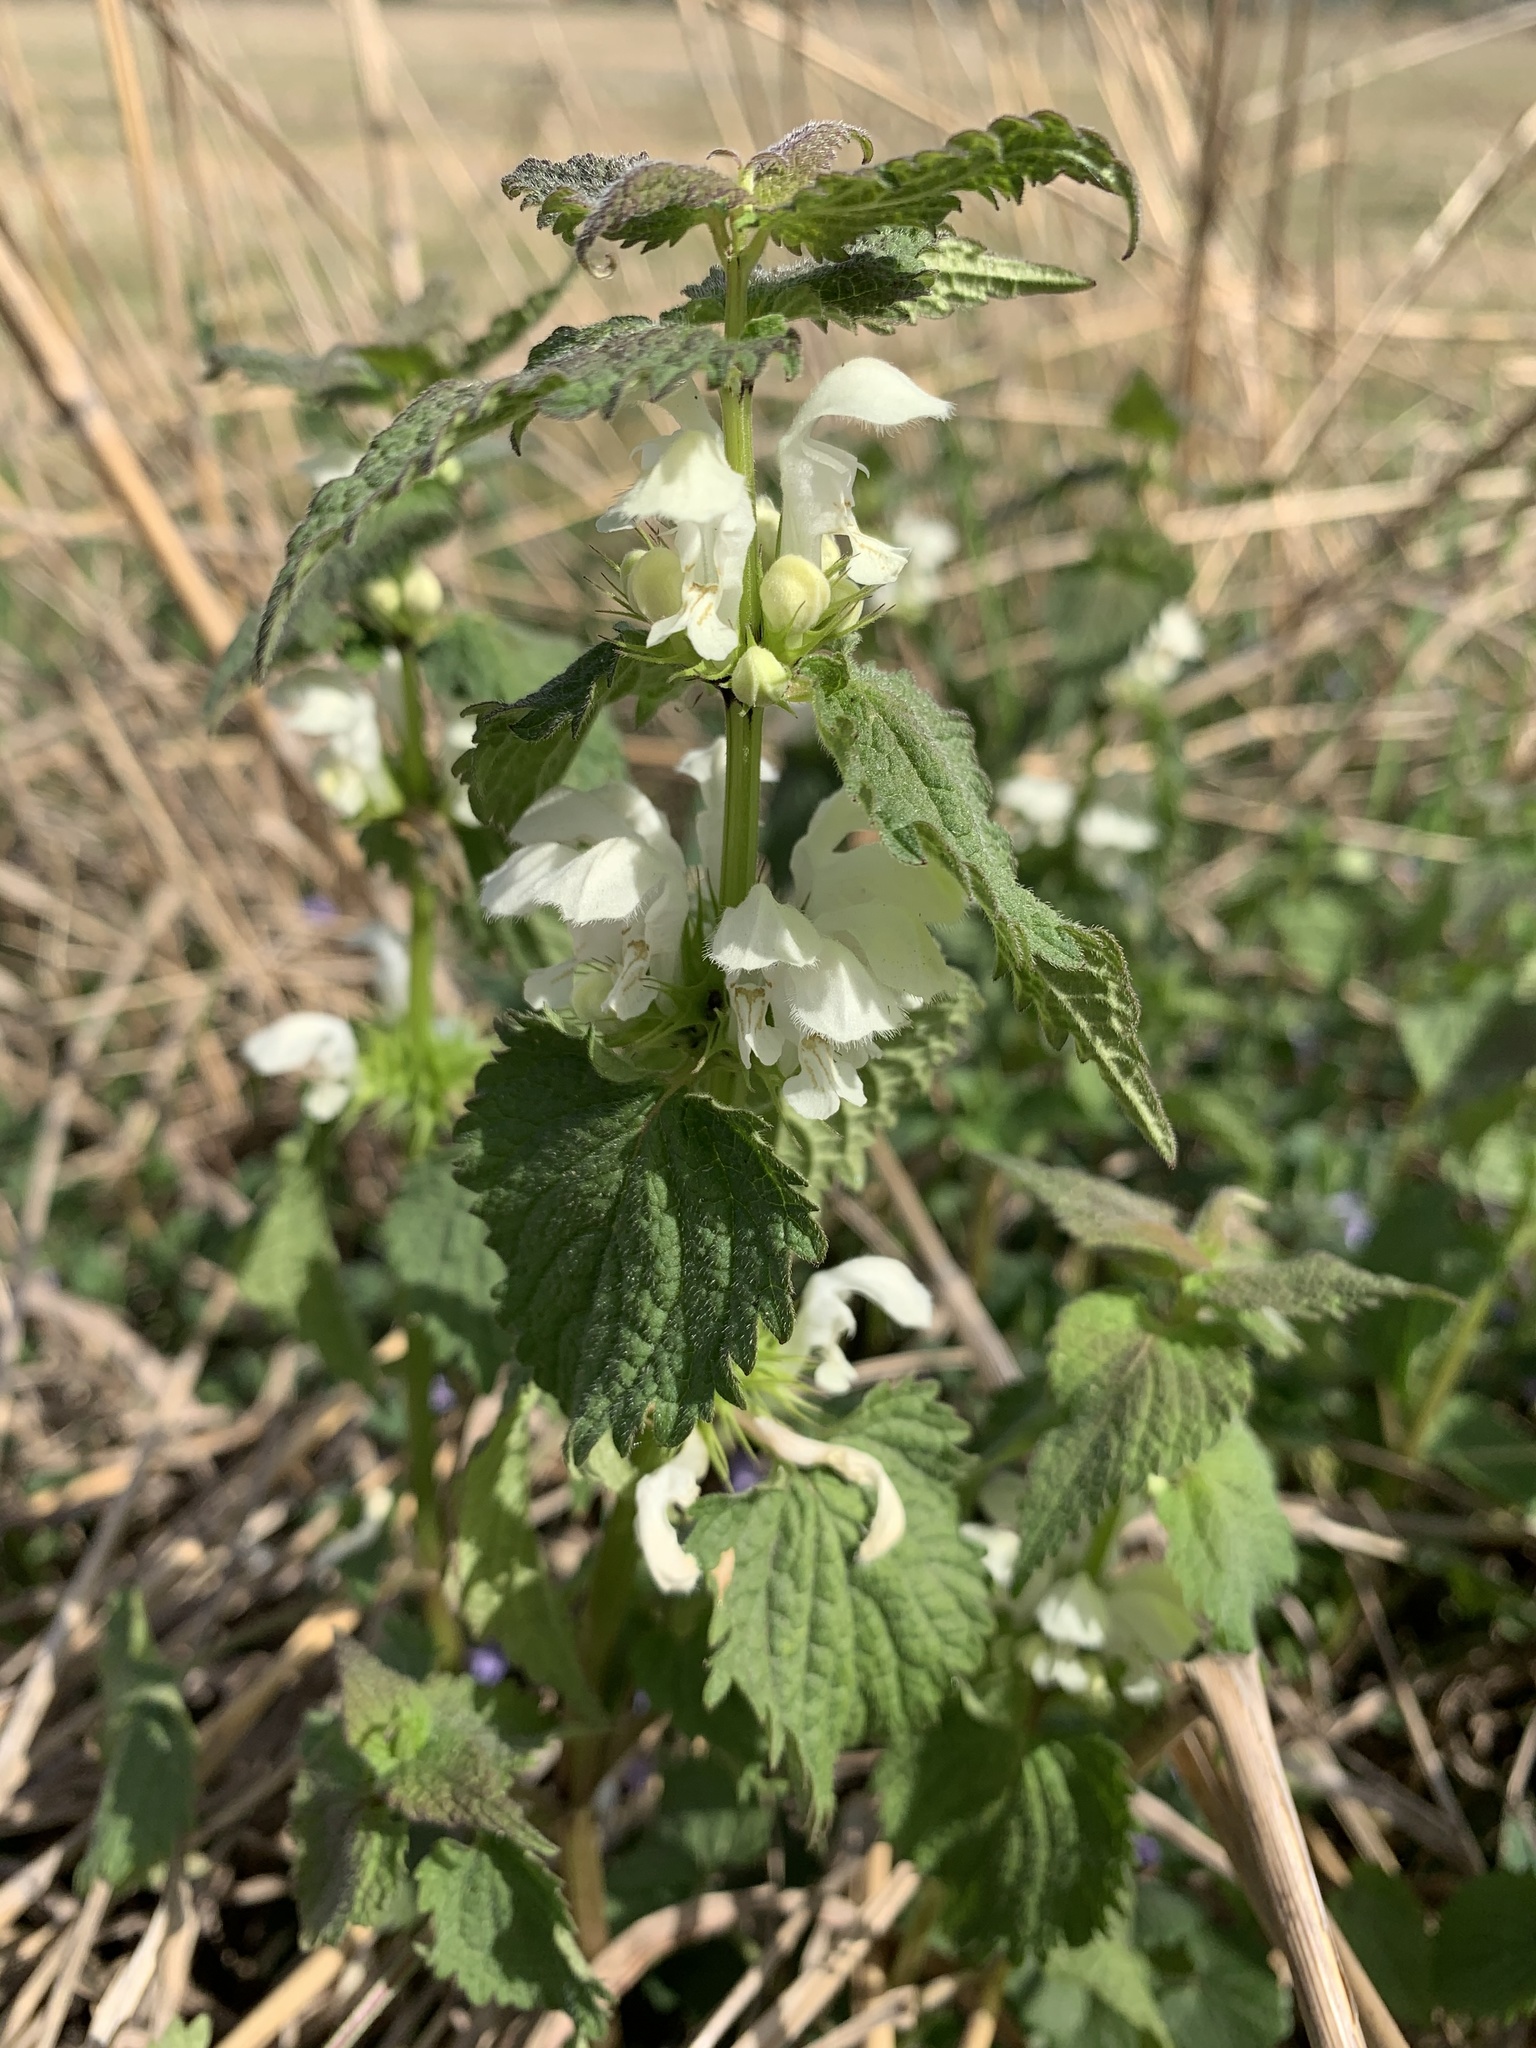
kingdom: Plantae
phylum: Tracheophyta
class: Magnoliopsida
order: Lamiales
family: Lamiaceae
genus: Lamium
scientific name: Lamium album
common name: White dead-nettle
